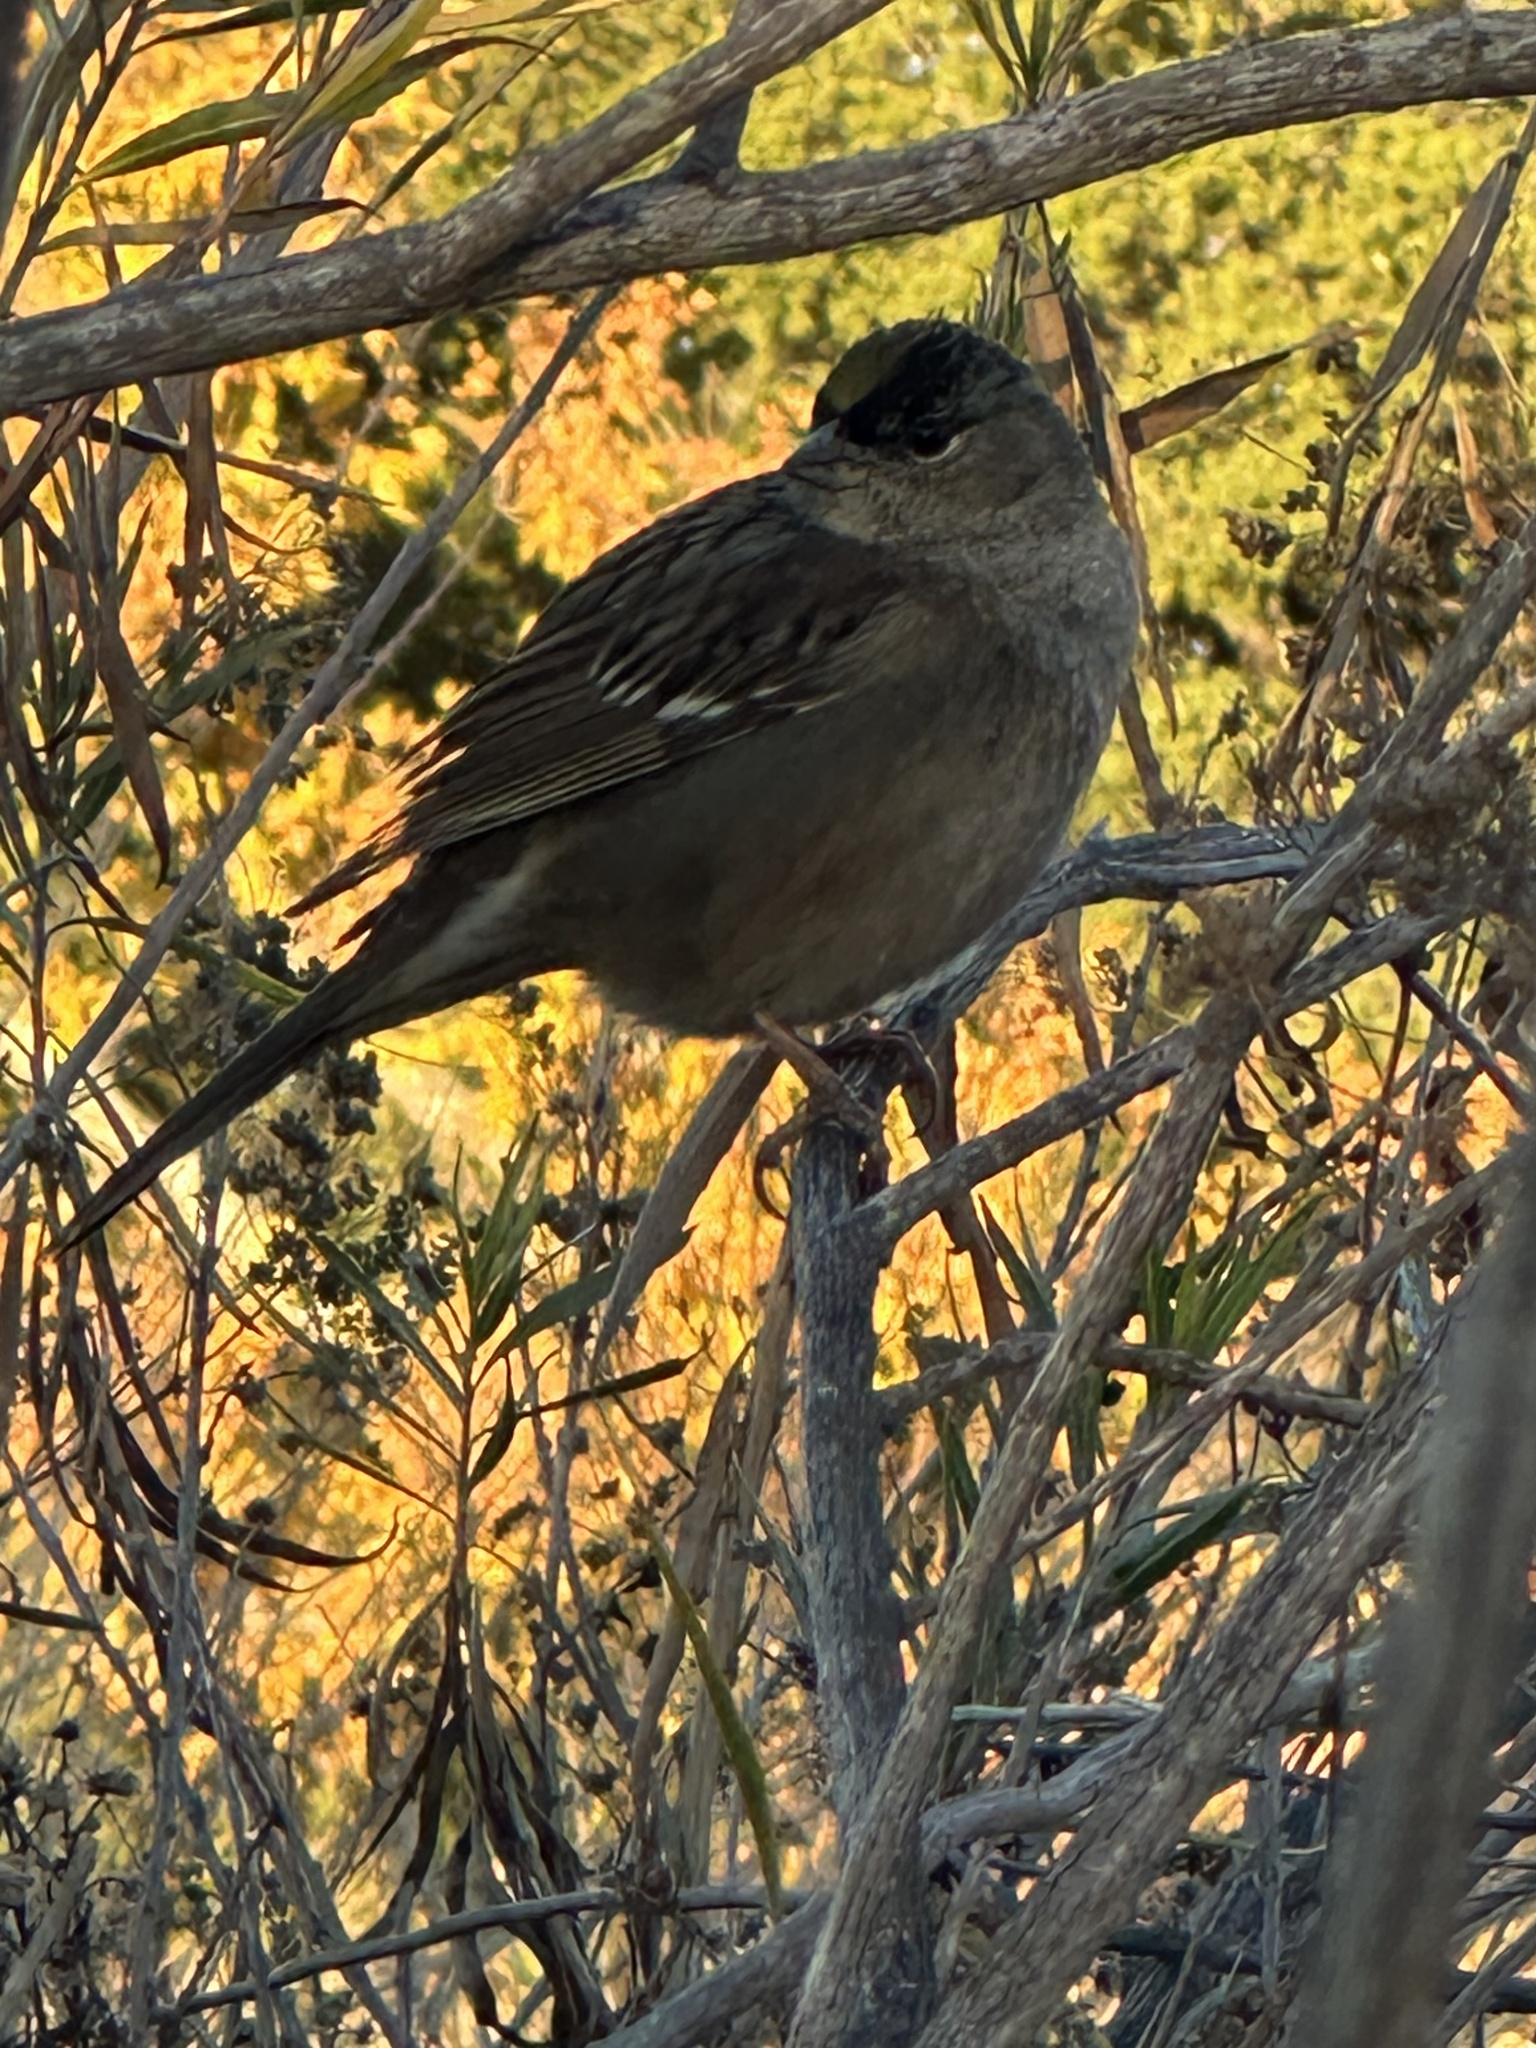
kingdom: Animalia
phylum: Chordata
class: Aves
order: Passeriformes
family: Passerellidae
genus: Zonotrichia
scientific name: Zonotrichia atricapilla
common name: Golden-crowned sparrow
